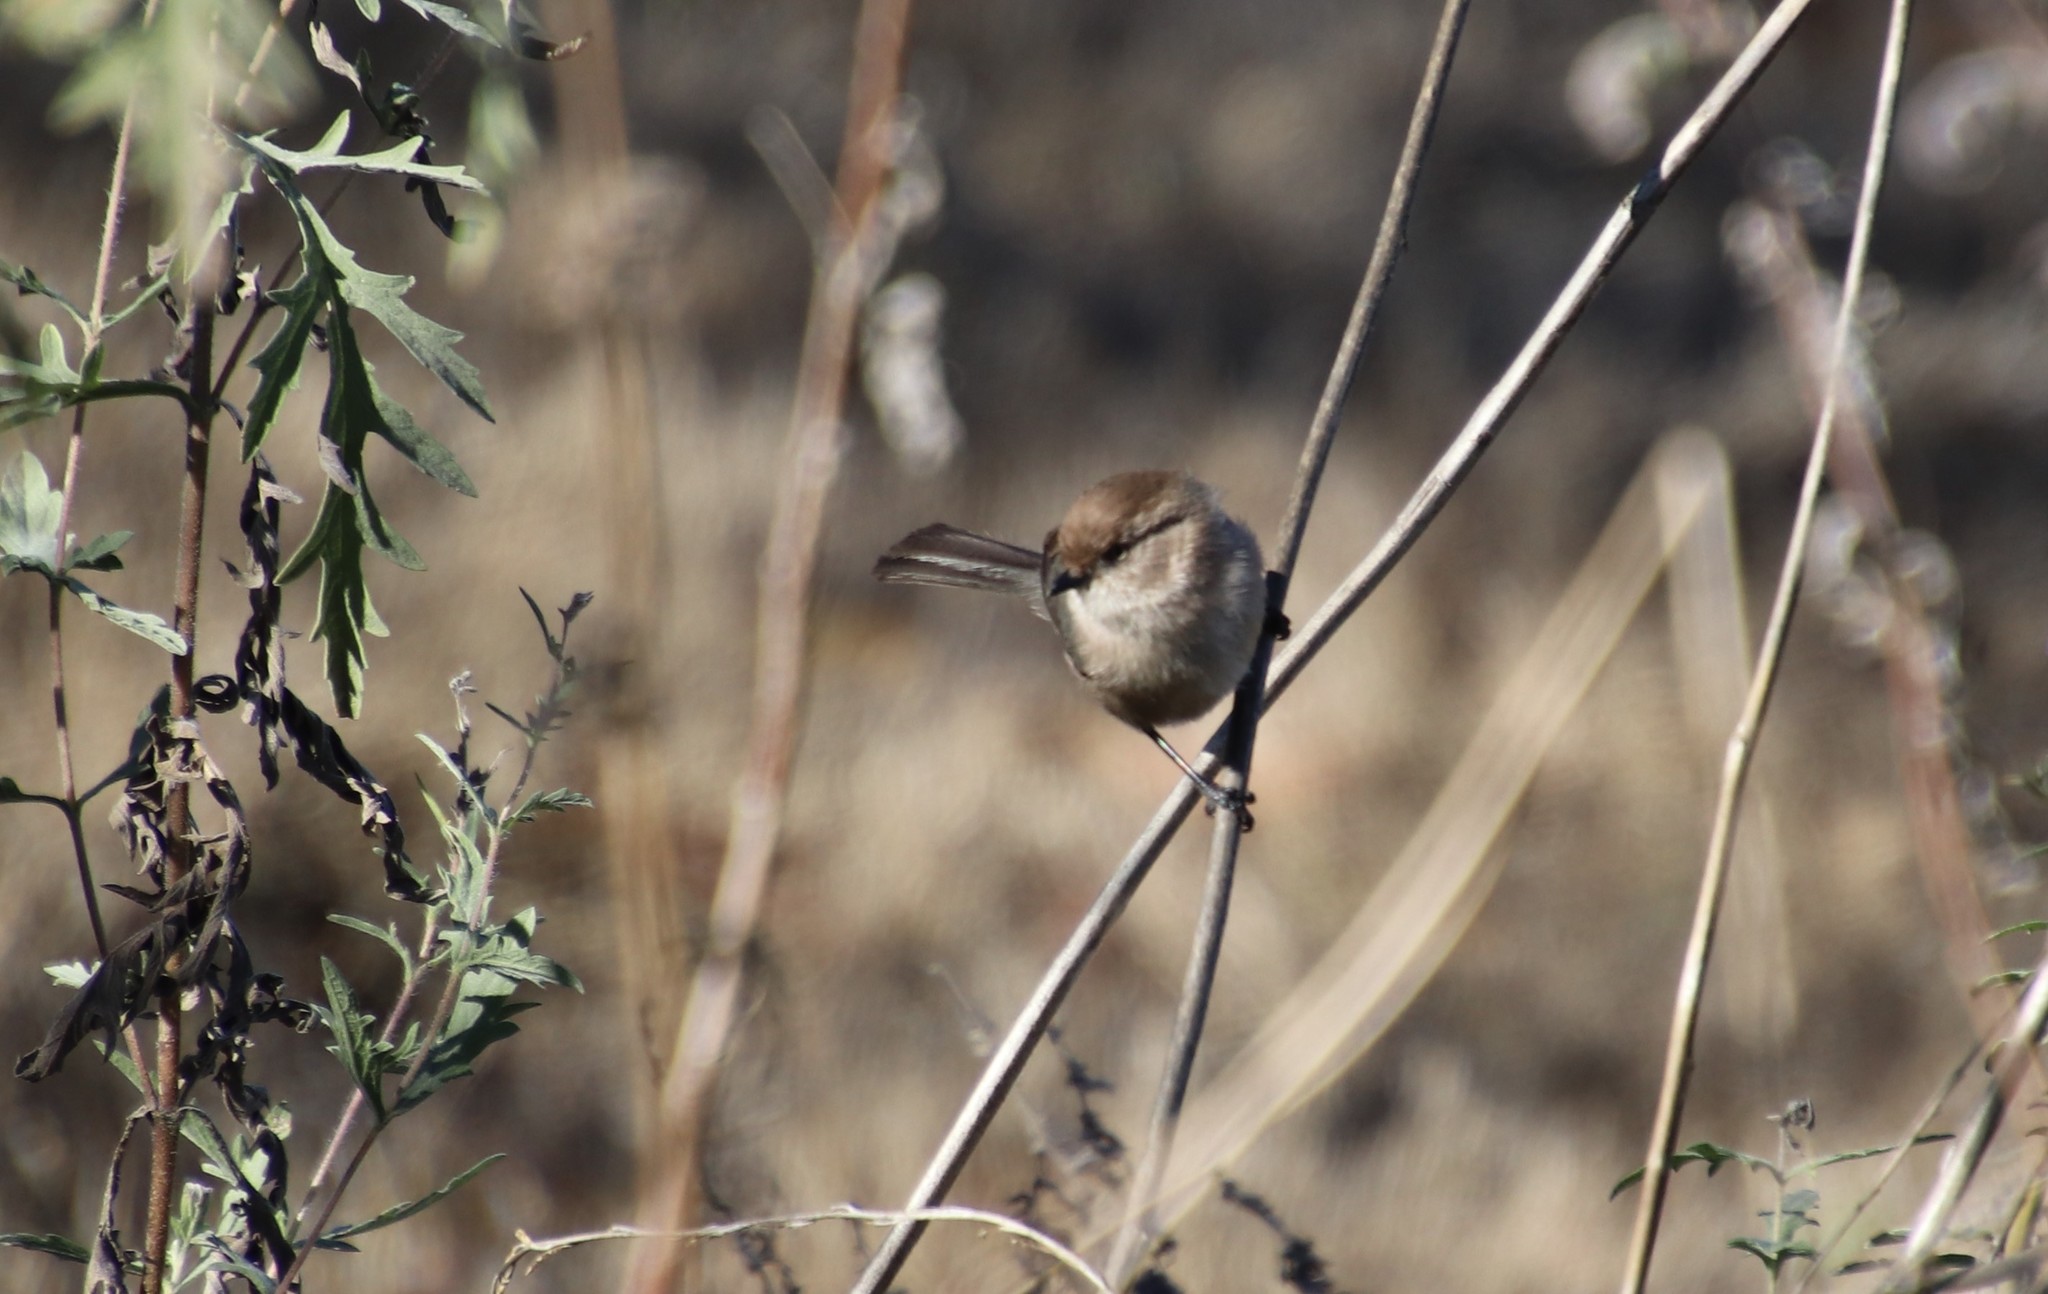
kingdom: Animalia
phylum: Chordata
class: Aves
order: Passeriformes
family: Aegithalidae
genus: Psaltriparus
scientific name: Psaltriparus minimus
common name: American bushtit
